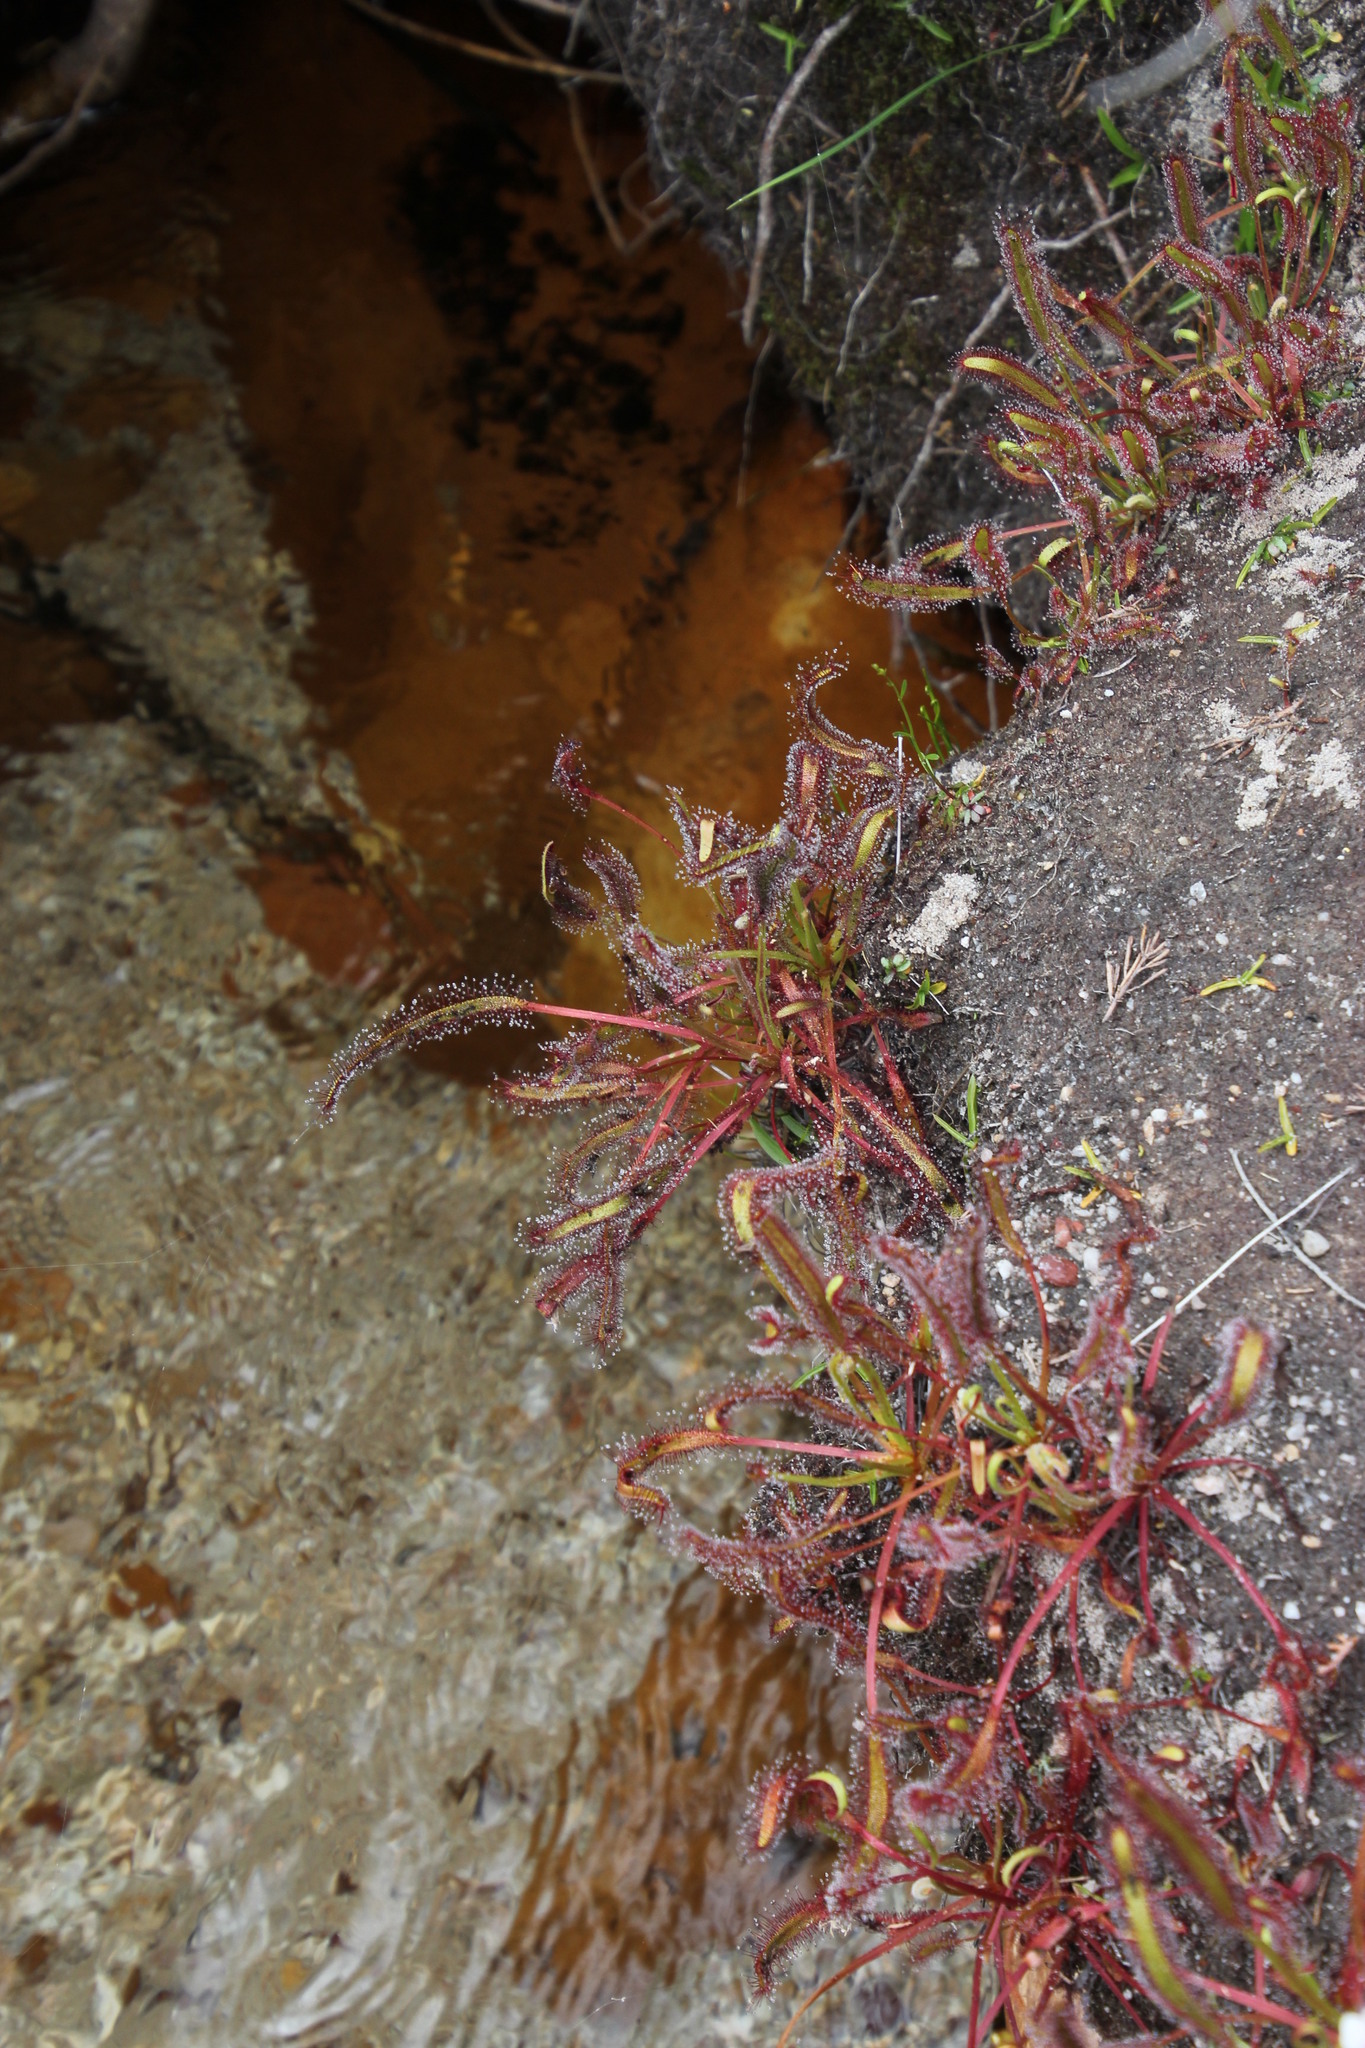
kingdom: Plantae
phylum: Tracheophyta
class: Magnoliopsida
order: Caryophyllales
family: Droseraceae
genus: Drosera
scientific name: Drosera capensis
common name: Cape sundew
